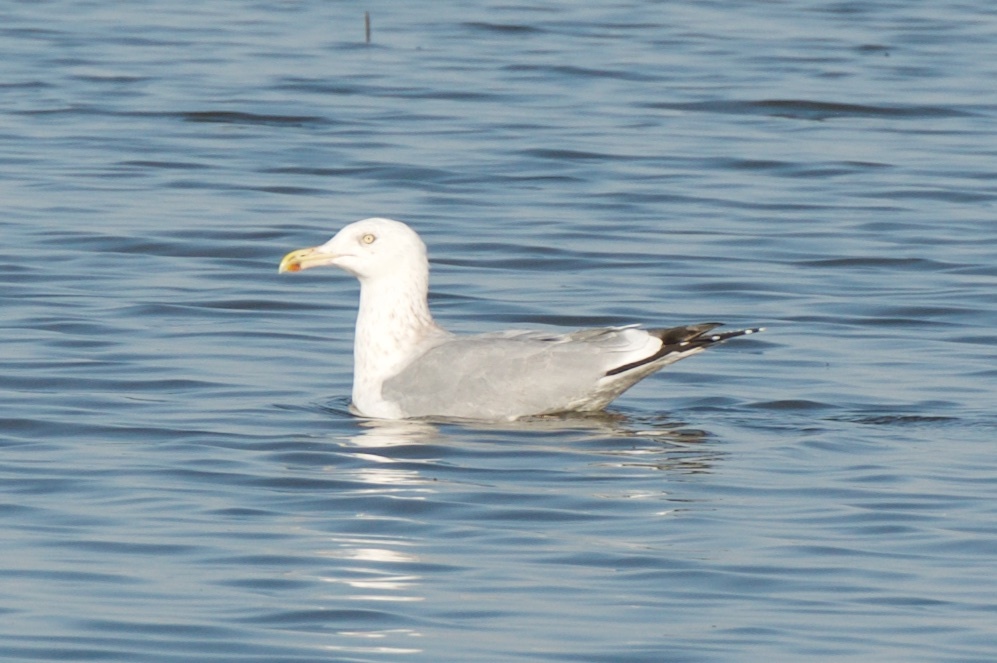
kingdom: Animalia
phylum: Chordata
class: Aves
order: Charadriiformes
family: Laridae
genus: Larus
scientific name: Larus argentatus
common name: Herring gull
